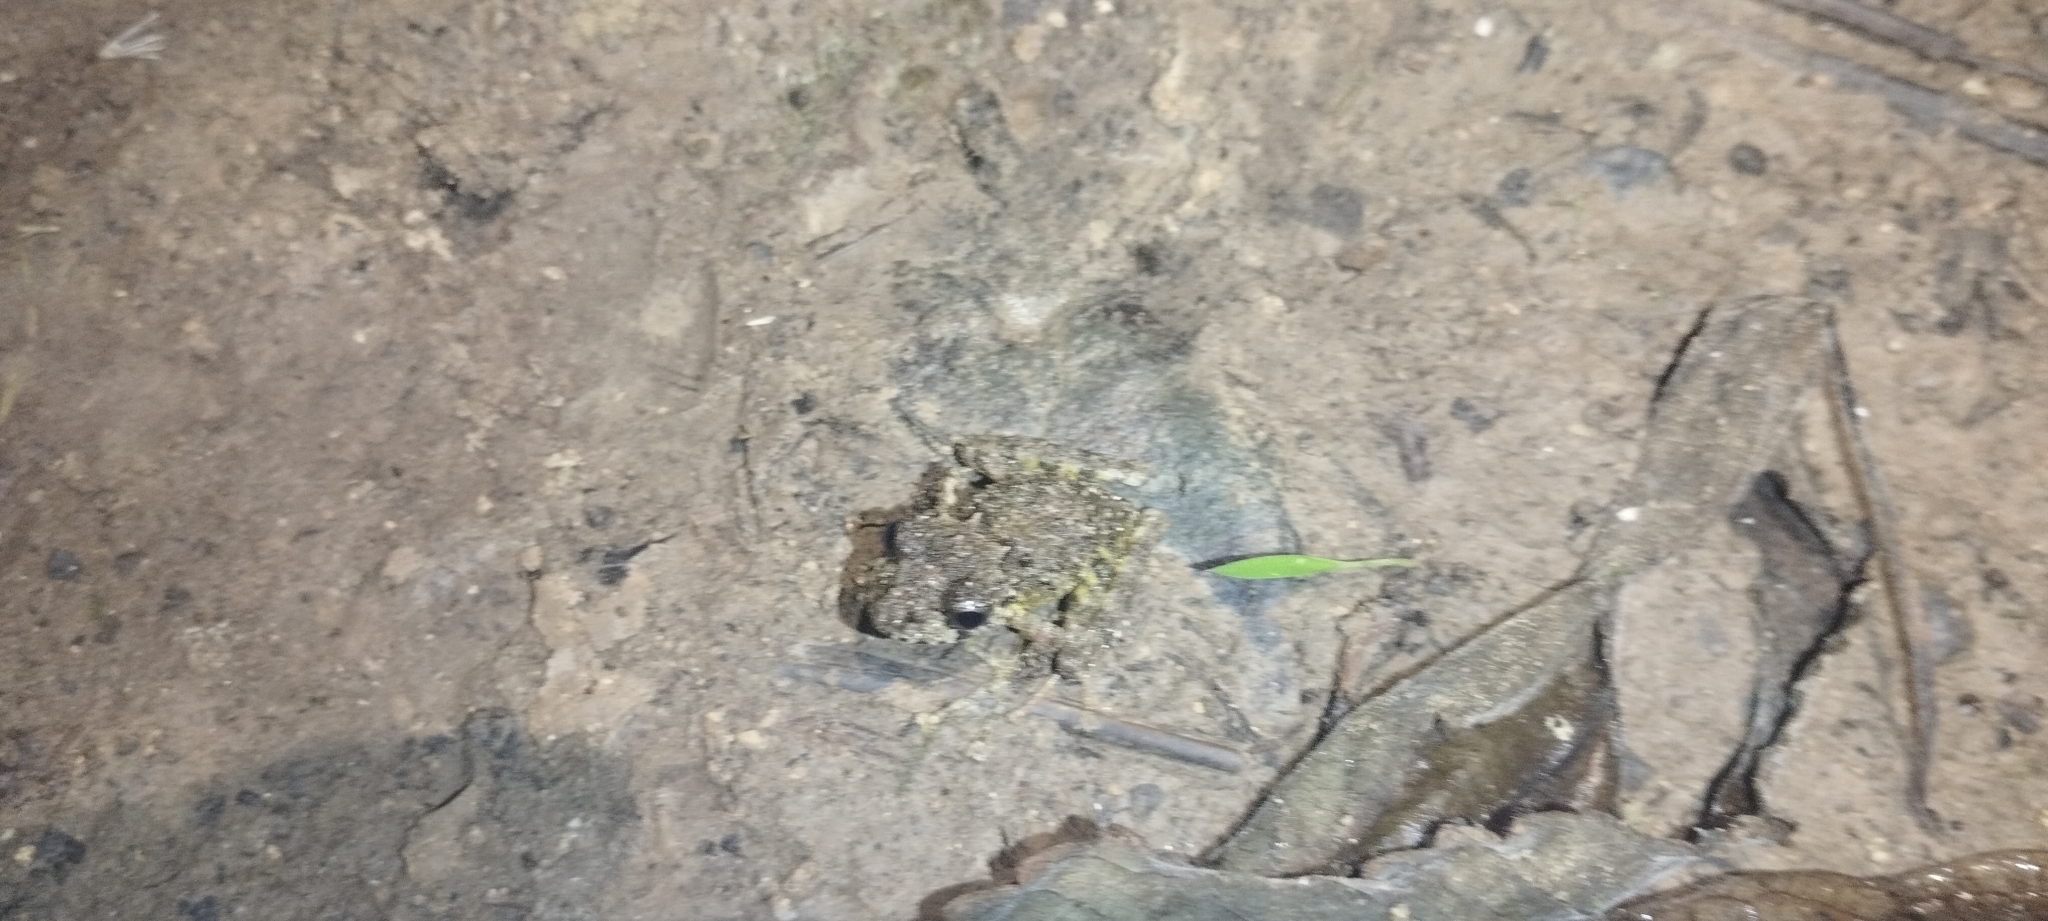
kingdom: Animalia
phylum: Chordata
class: Amphibia
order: Anura
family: Craugastoridae
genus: Craugastor
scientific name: Craugastor decoratus
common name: Adorned robber frog
